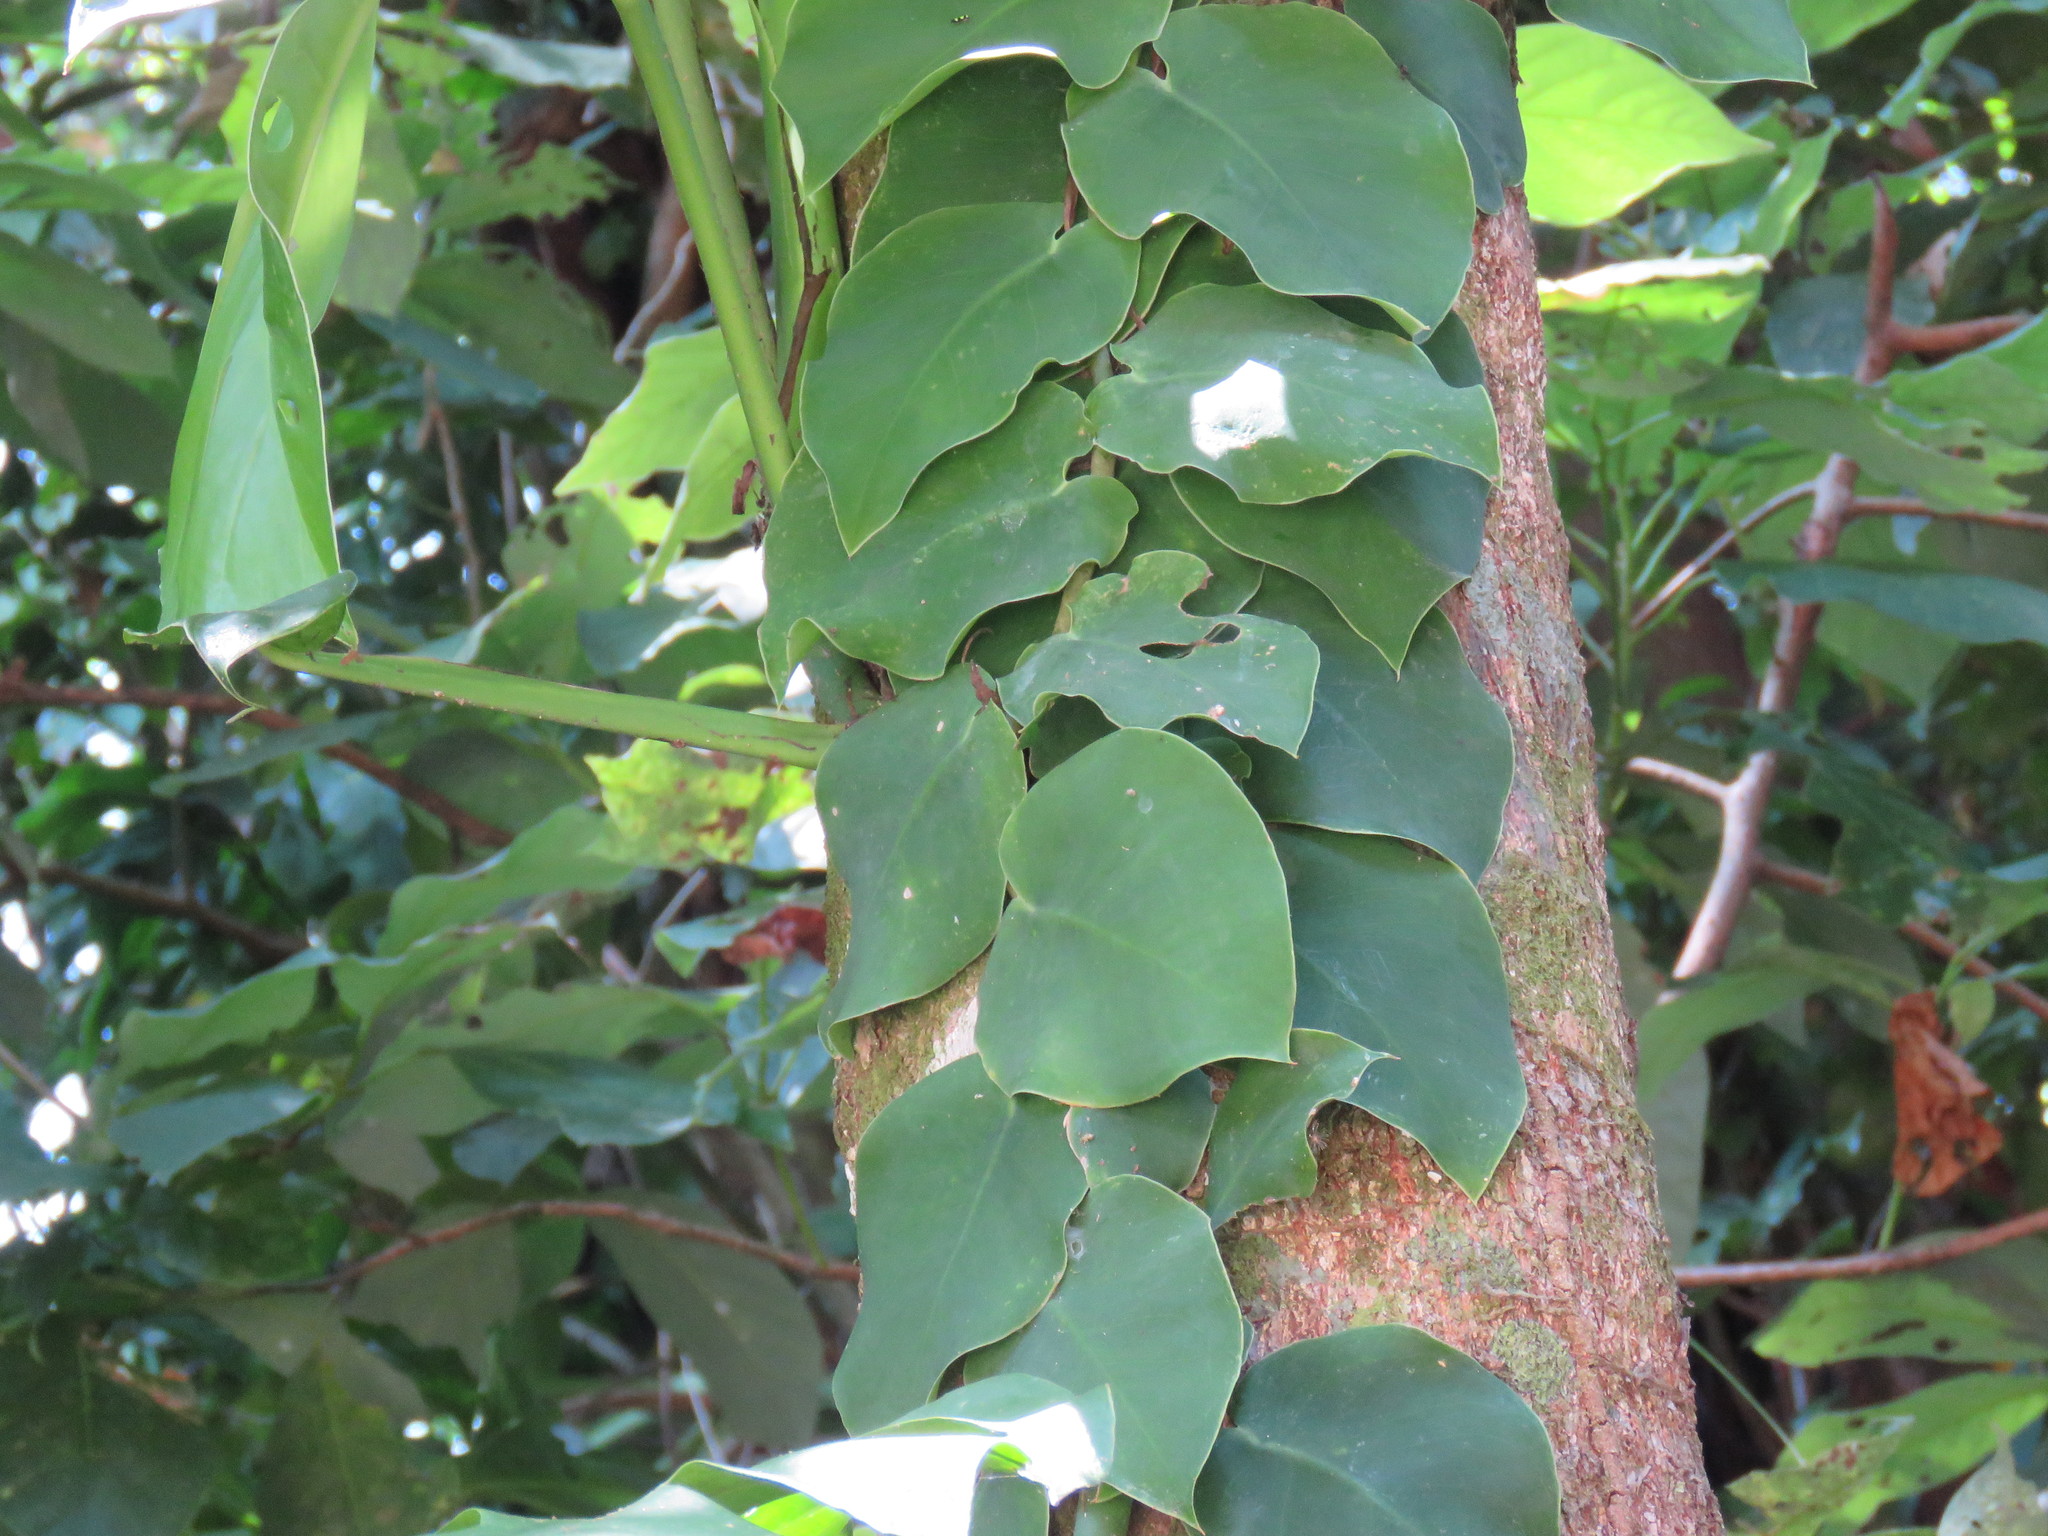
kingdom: Plantae
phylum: Tracheophyta
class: Liliopsida
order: Alismatales
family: Araceae
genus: Monstera
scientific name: Monstera tuberculata
